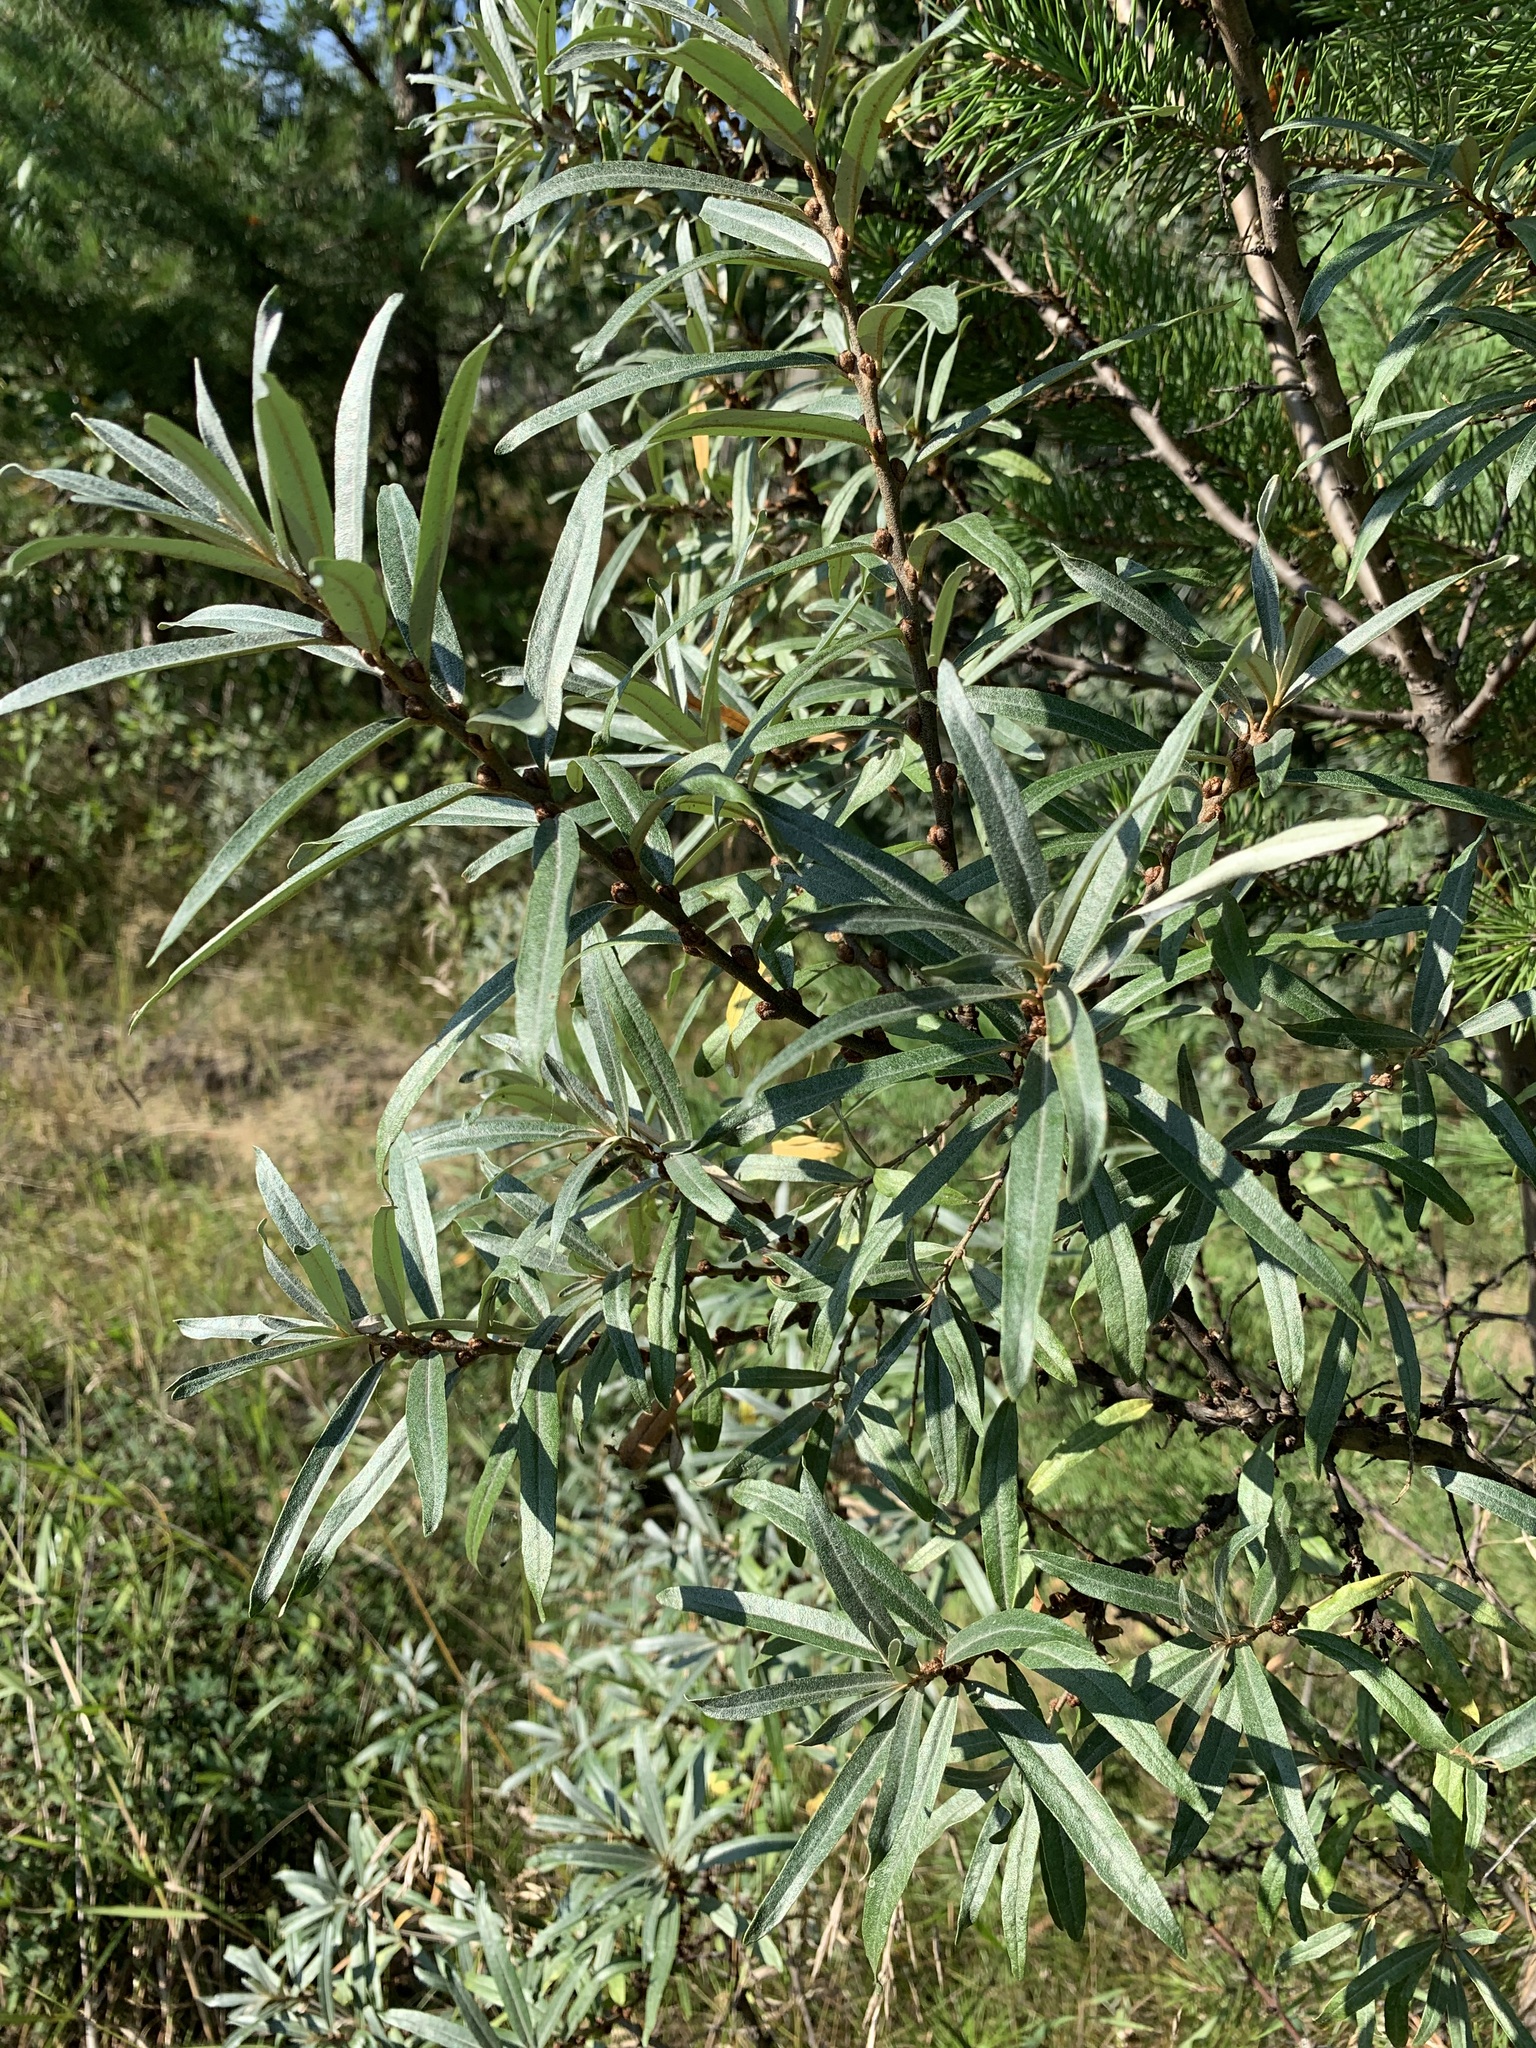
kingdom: Plantae
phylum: Tracheophyta
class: Magnoliopsida
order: Rosales
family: Elaeagnaceae
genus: Hippophae
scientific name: Hippophae rhamnoides
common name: Sea-buckthorn
